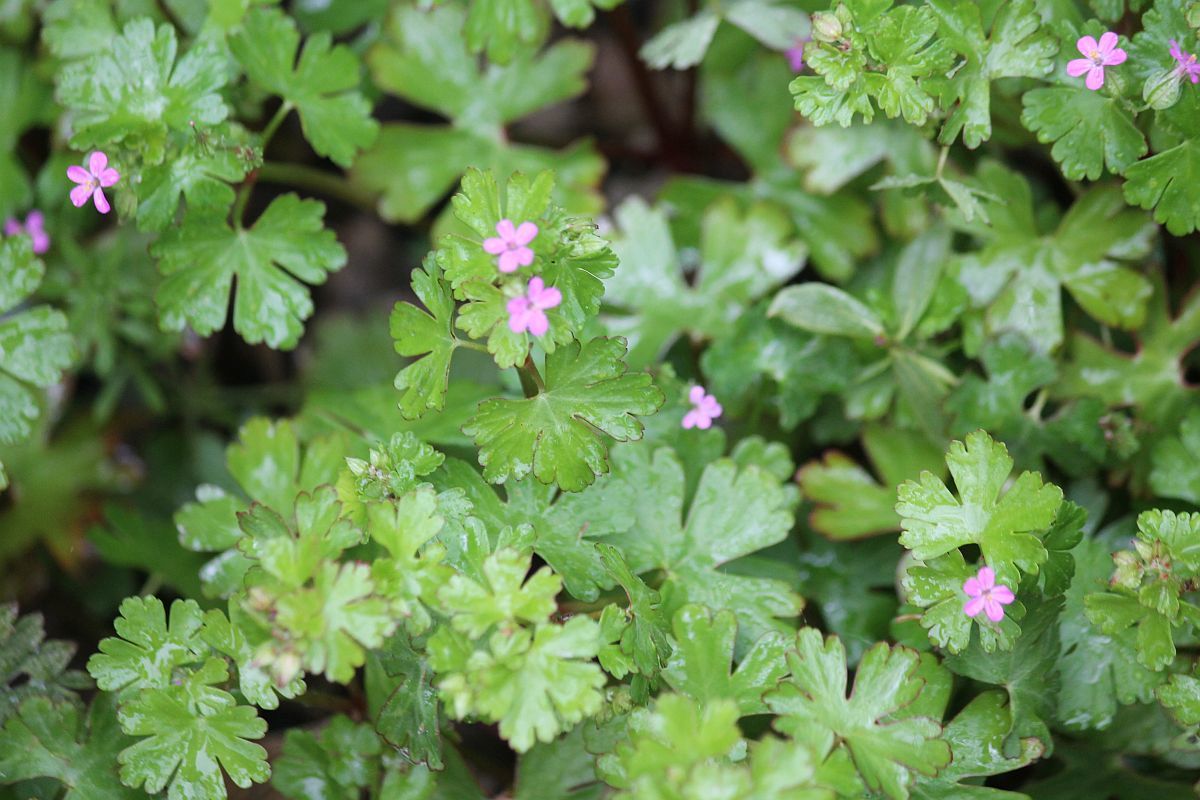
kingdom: Plantae
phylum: Tracheophyta
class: Magnoliopsida
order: Geraniales
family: Geraniaceae
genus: Geranium
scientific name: Geranium lucidum
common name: Shining crane's-bill
